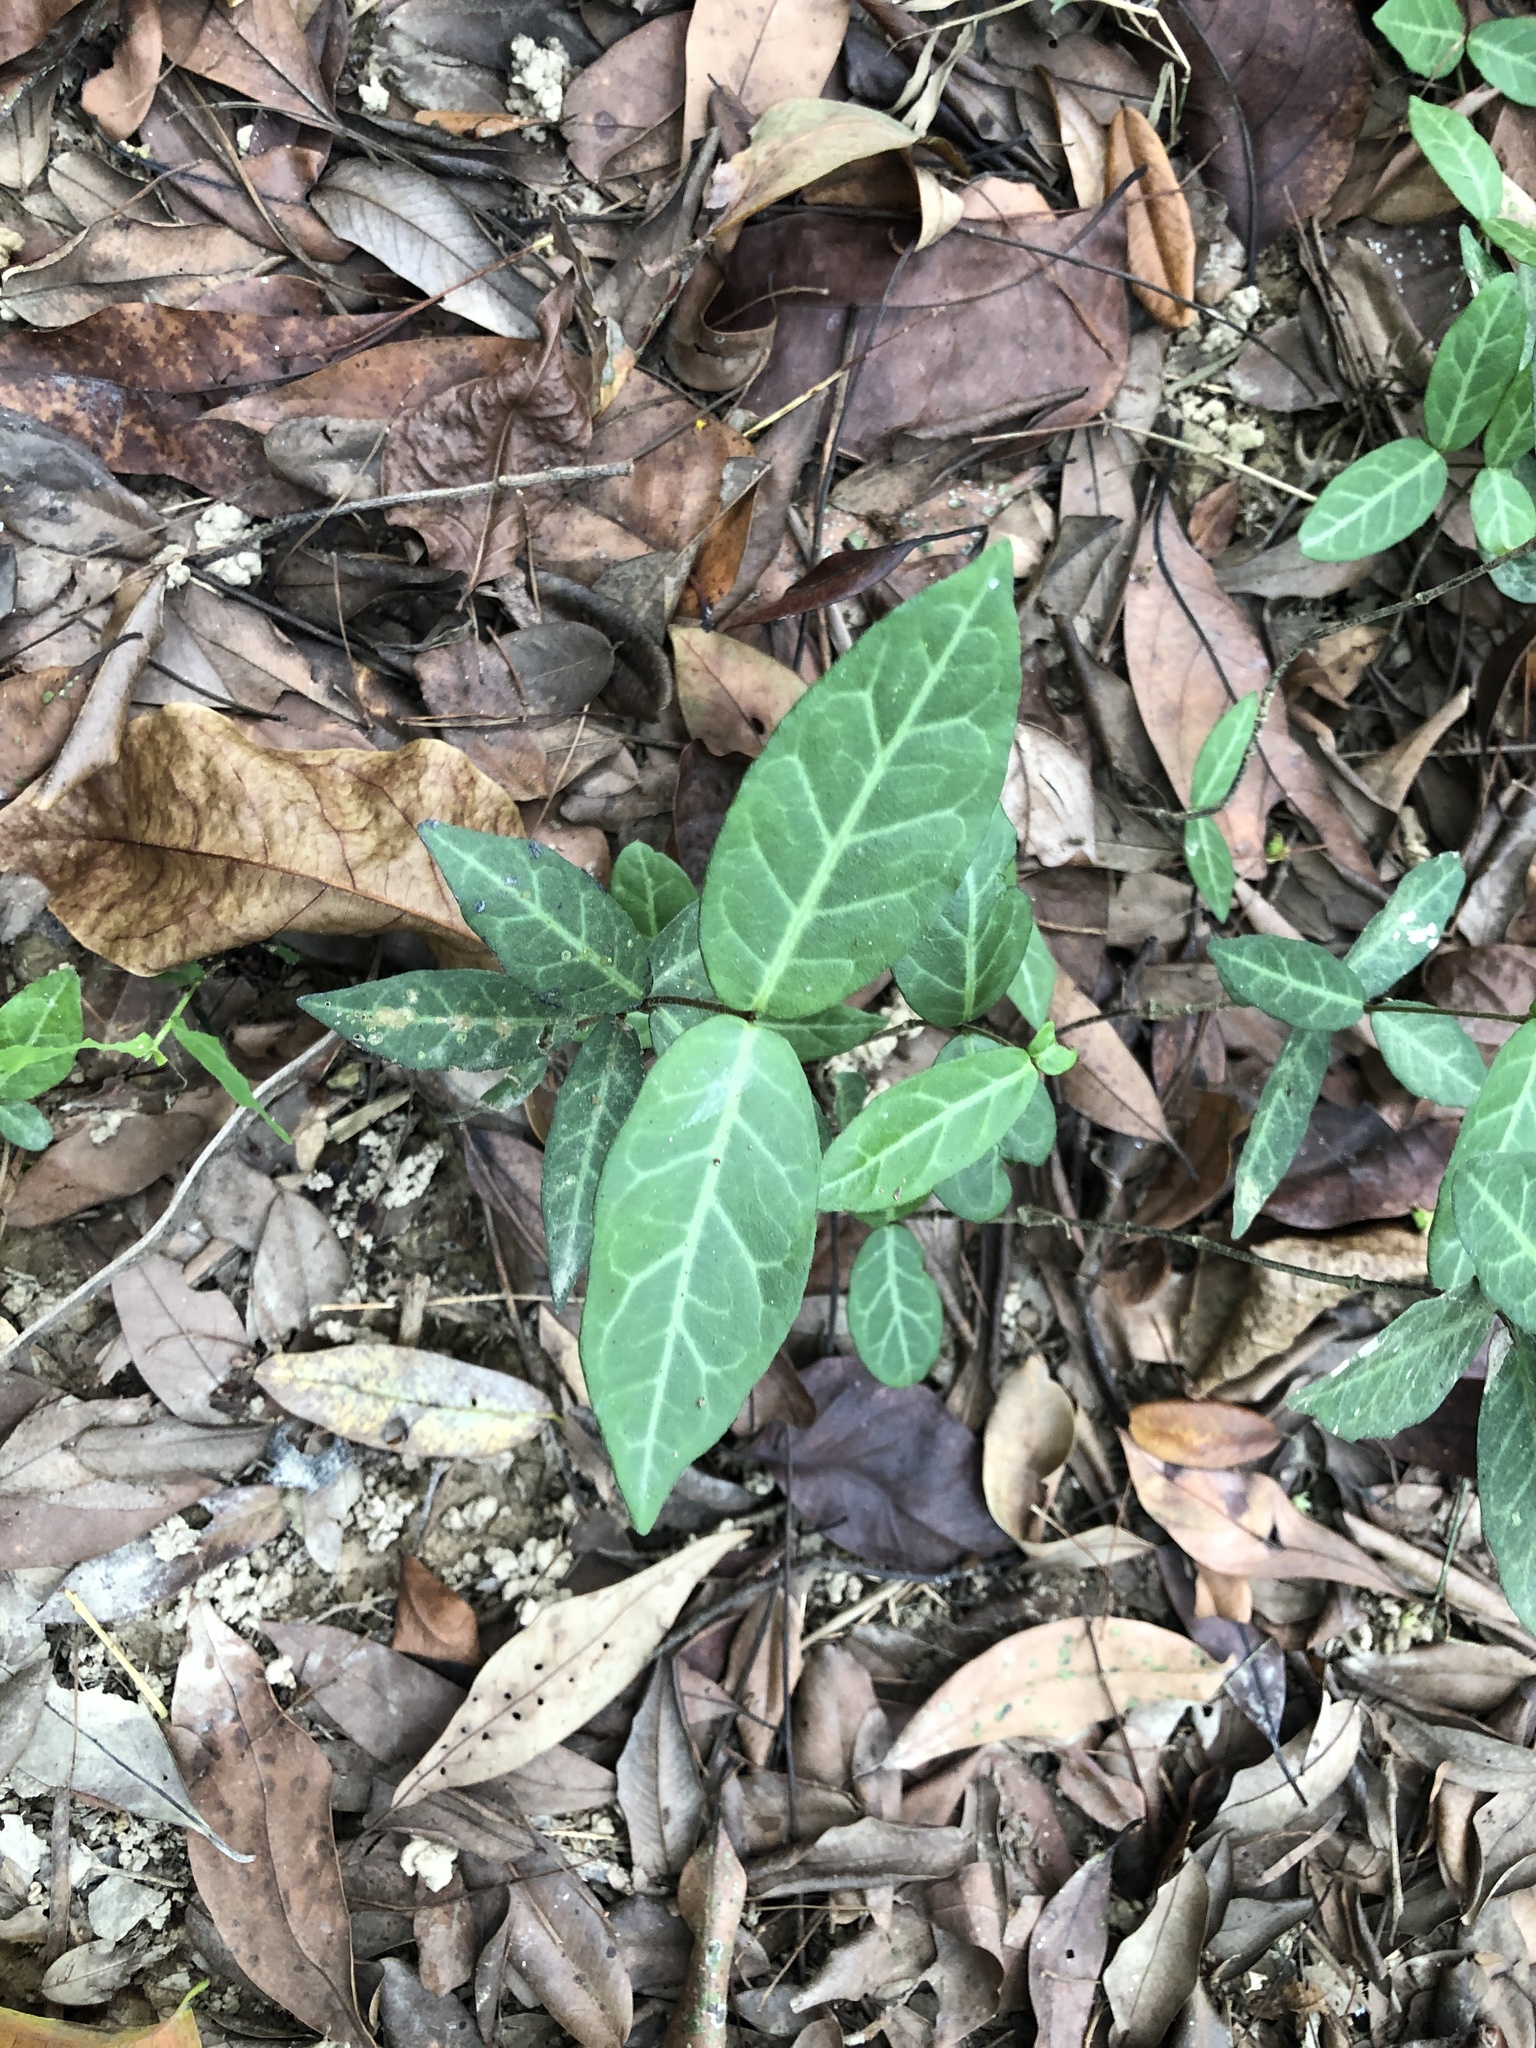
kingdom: Plantae
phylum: Tracheophyta
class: Magnoliopsida
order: Gentianales
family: Apocynaceae
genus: Trachelospermum
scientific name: Trachelospermum jasminoides
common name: Confederate jasmine
